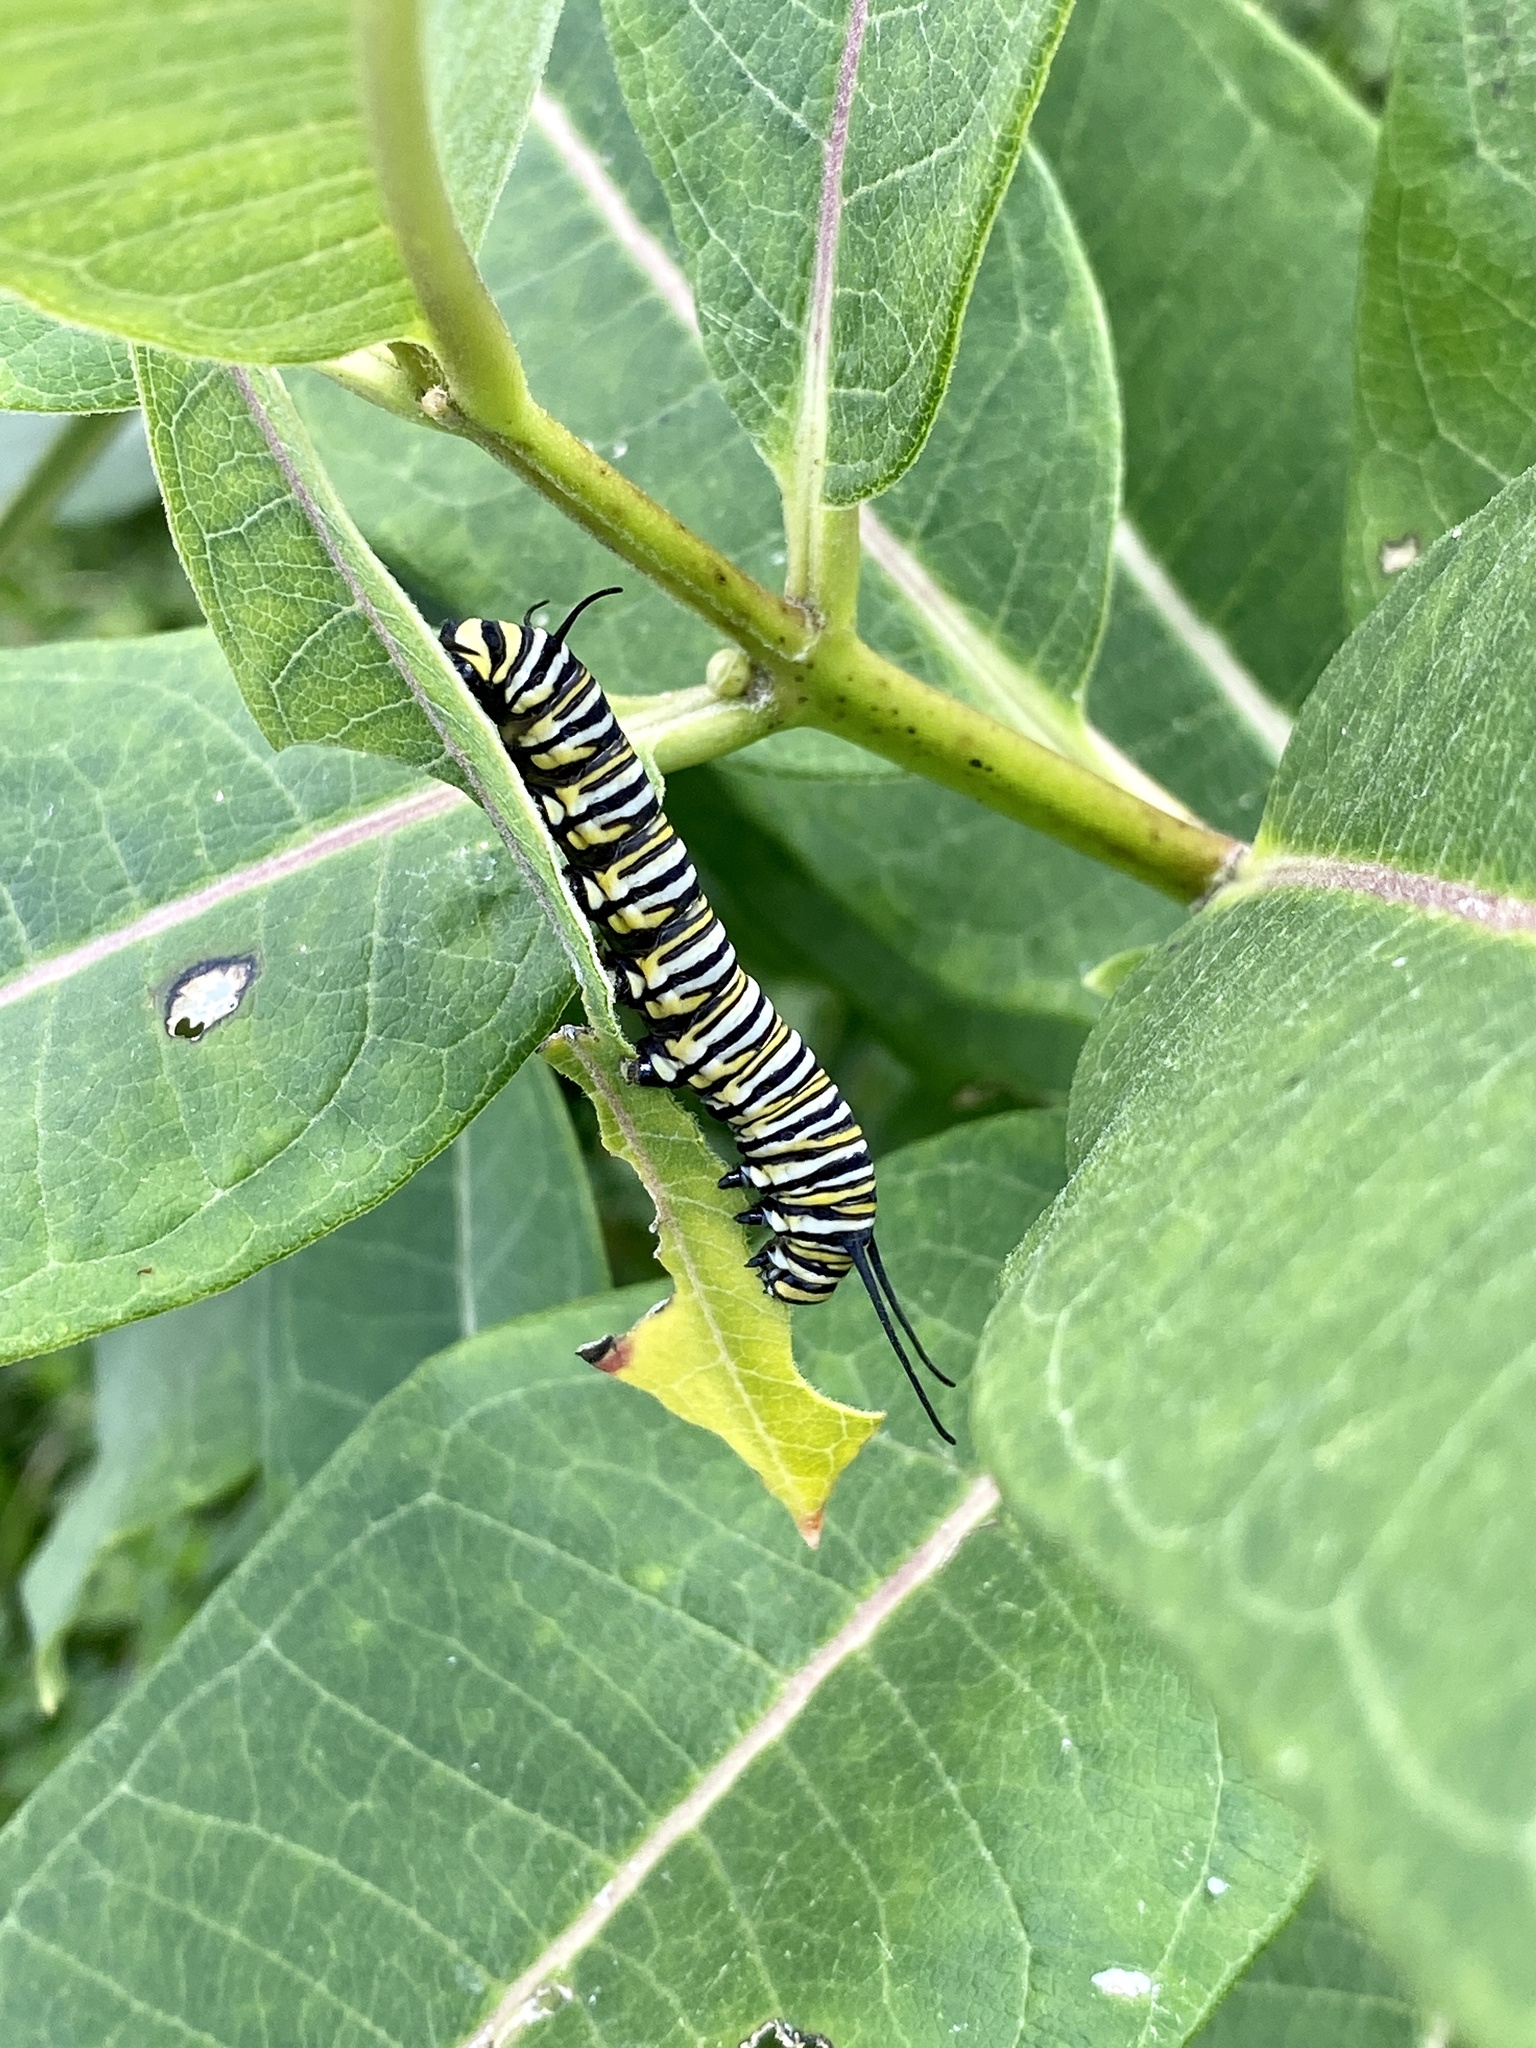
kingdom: Animalia
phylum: Arthropoda
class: Insecta
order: Lepidoptera
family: Nymphalidae
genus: Danaus
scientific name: Danaus plexippus
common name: Monarch
